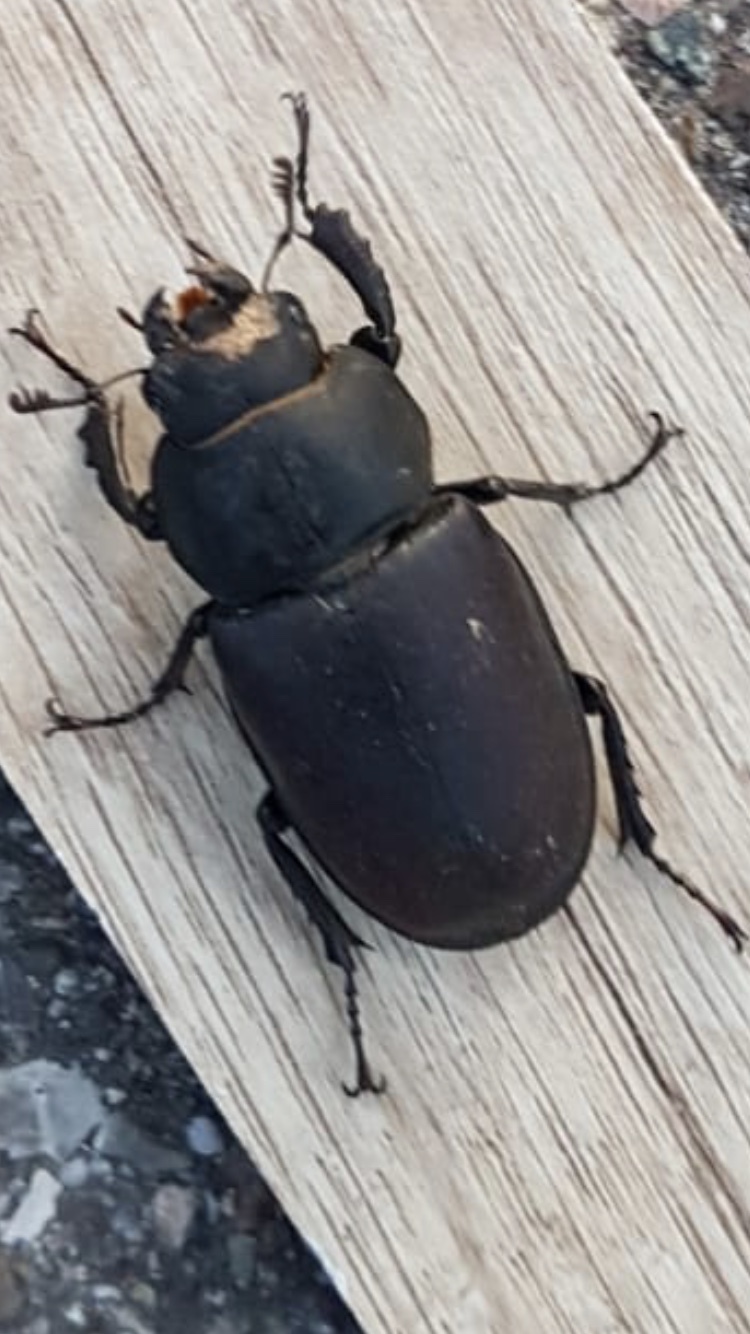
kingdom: Animalia
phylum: Arthropoda
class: Insecta
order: Coleoptera
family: Lucanidae
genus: Lucanus
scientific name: Lucanus cervus
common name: Stag beetle
